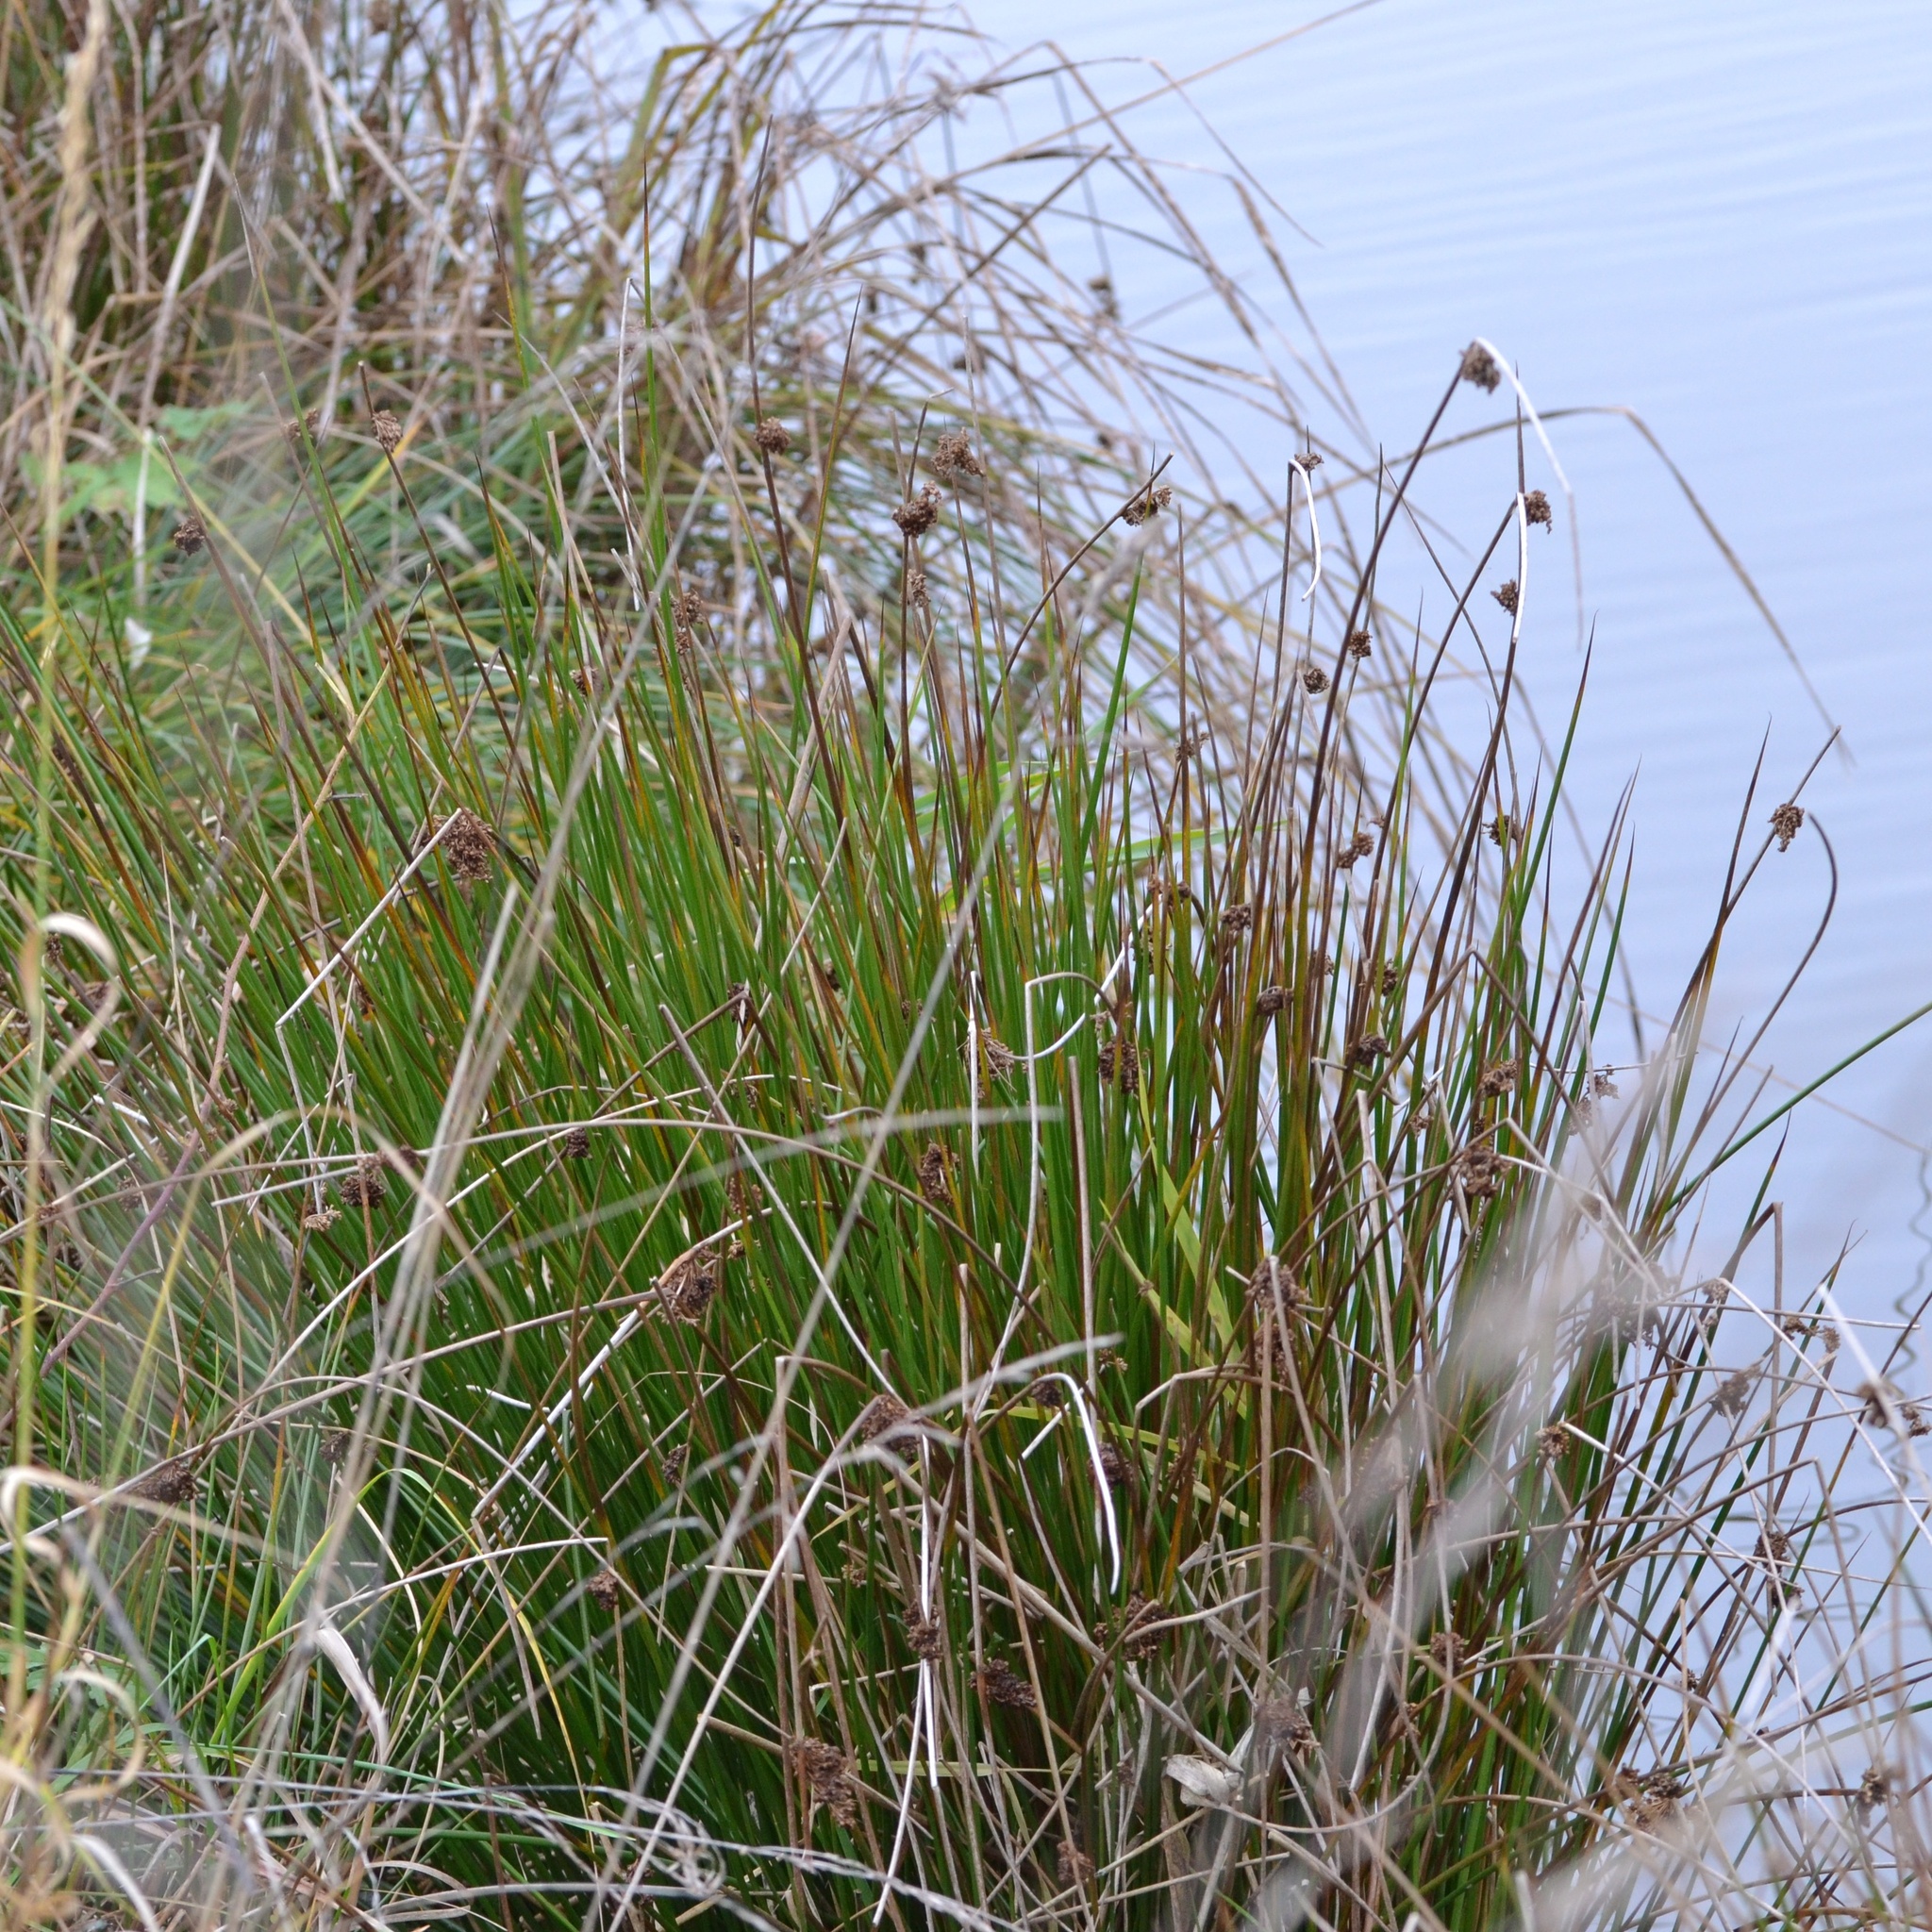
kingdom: Plantae
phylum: Tracheophyta
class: Liliopsida
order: Poales
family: Juncaceae
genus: Juncus
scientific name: Juncus effusus
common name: Soft rush
